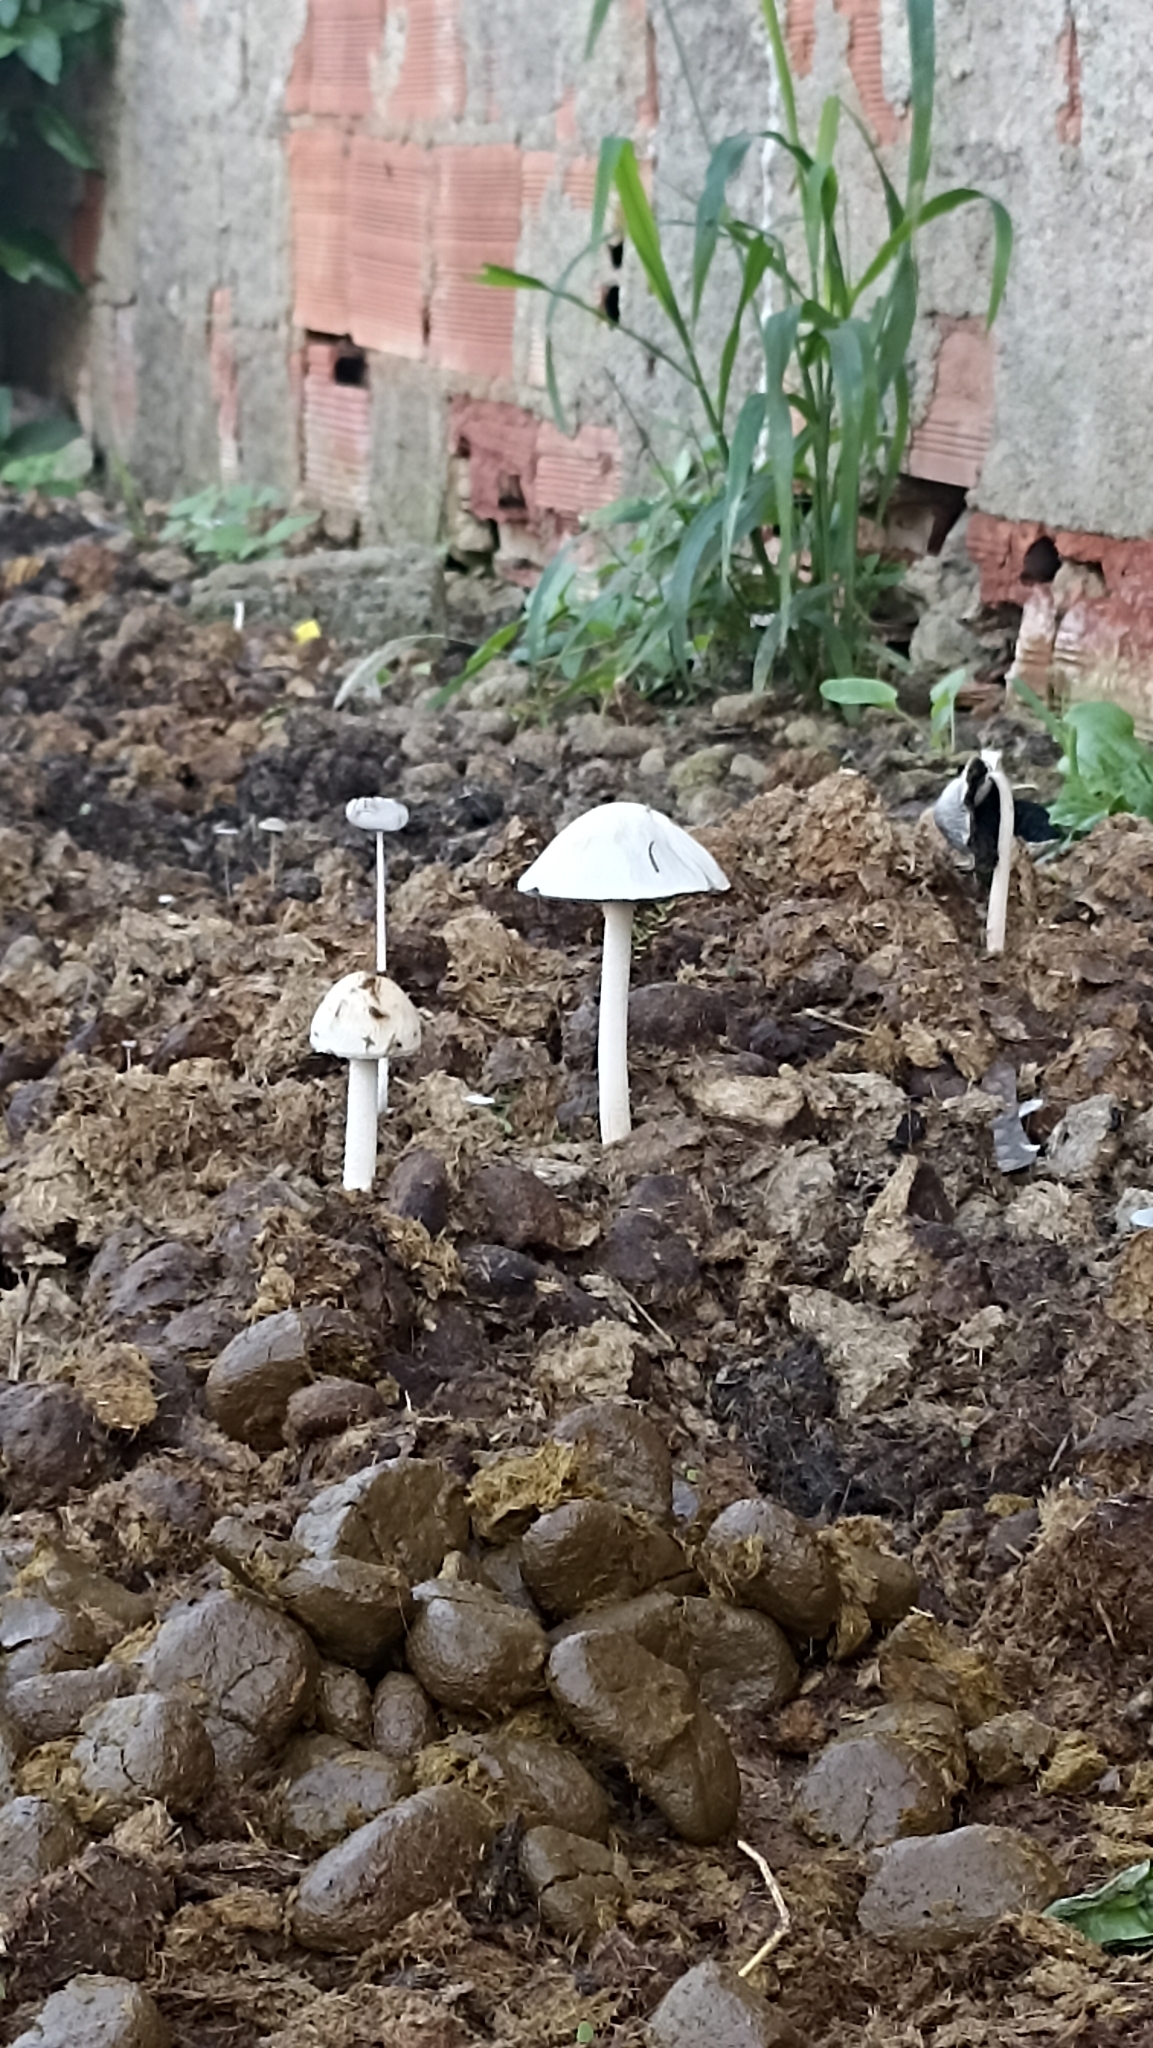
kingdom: Fungi
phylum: Basidiomycota
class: Agaricomycetes
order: Agaricales
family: Bolbitiaceae
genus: Panaeolus
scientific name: Panaeolus antillarum
